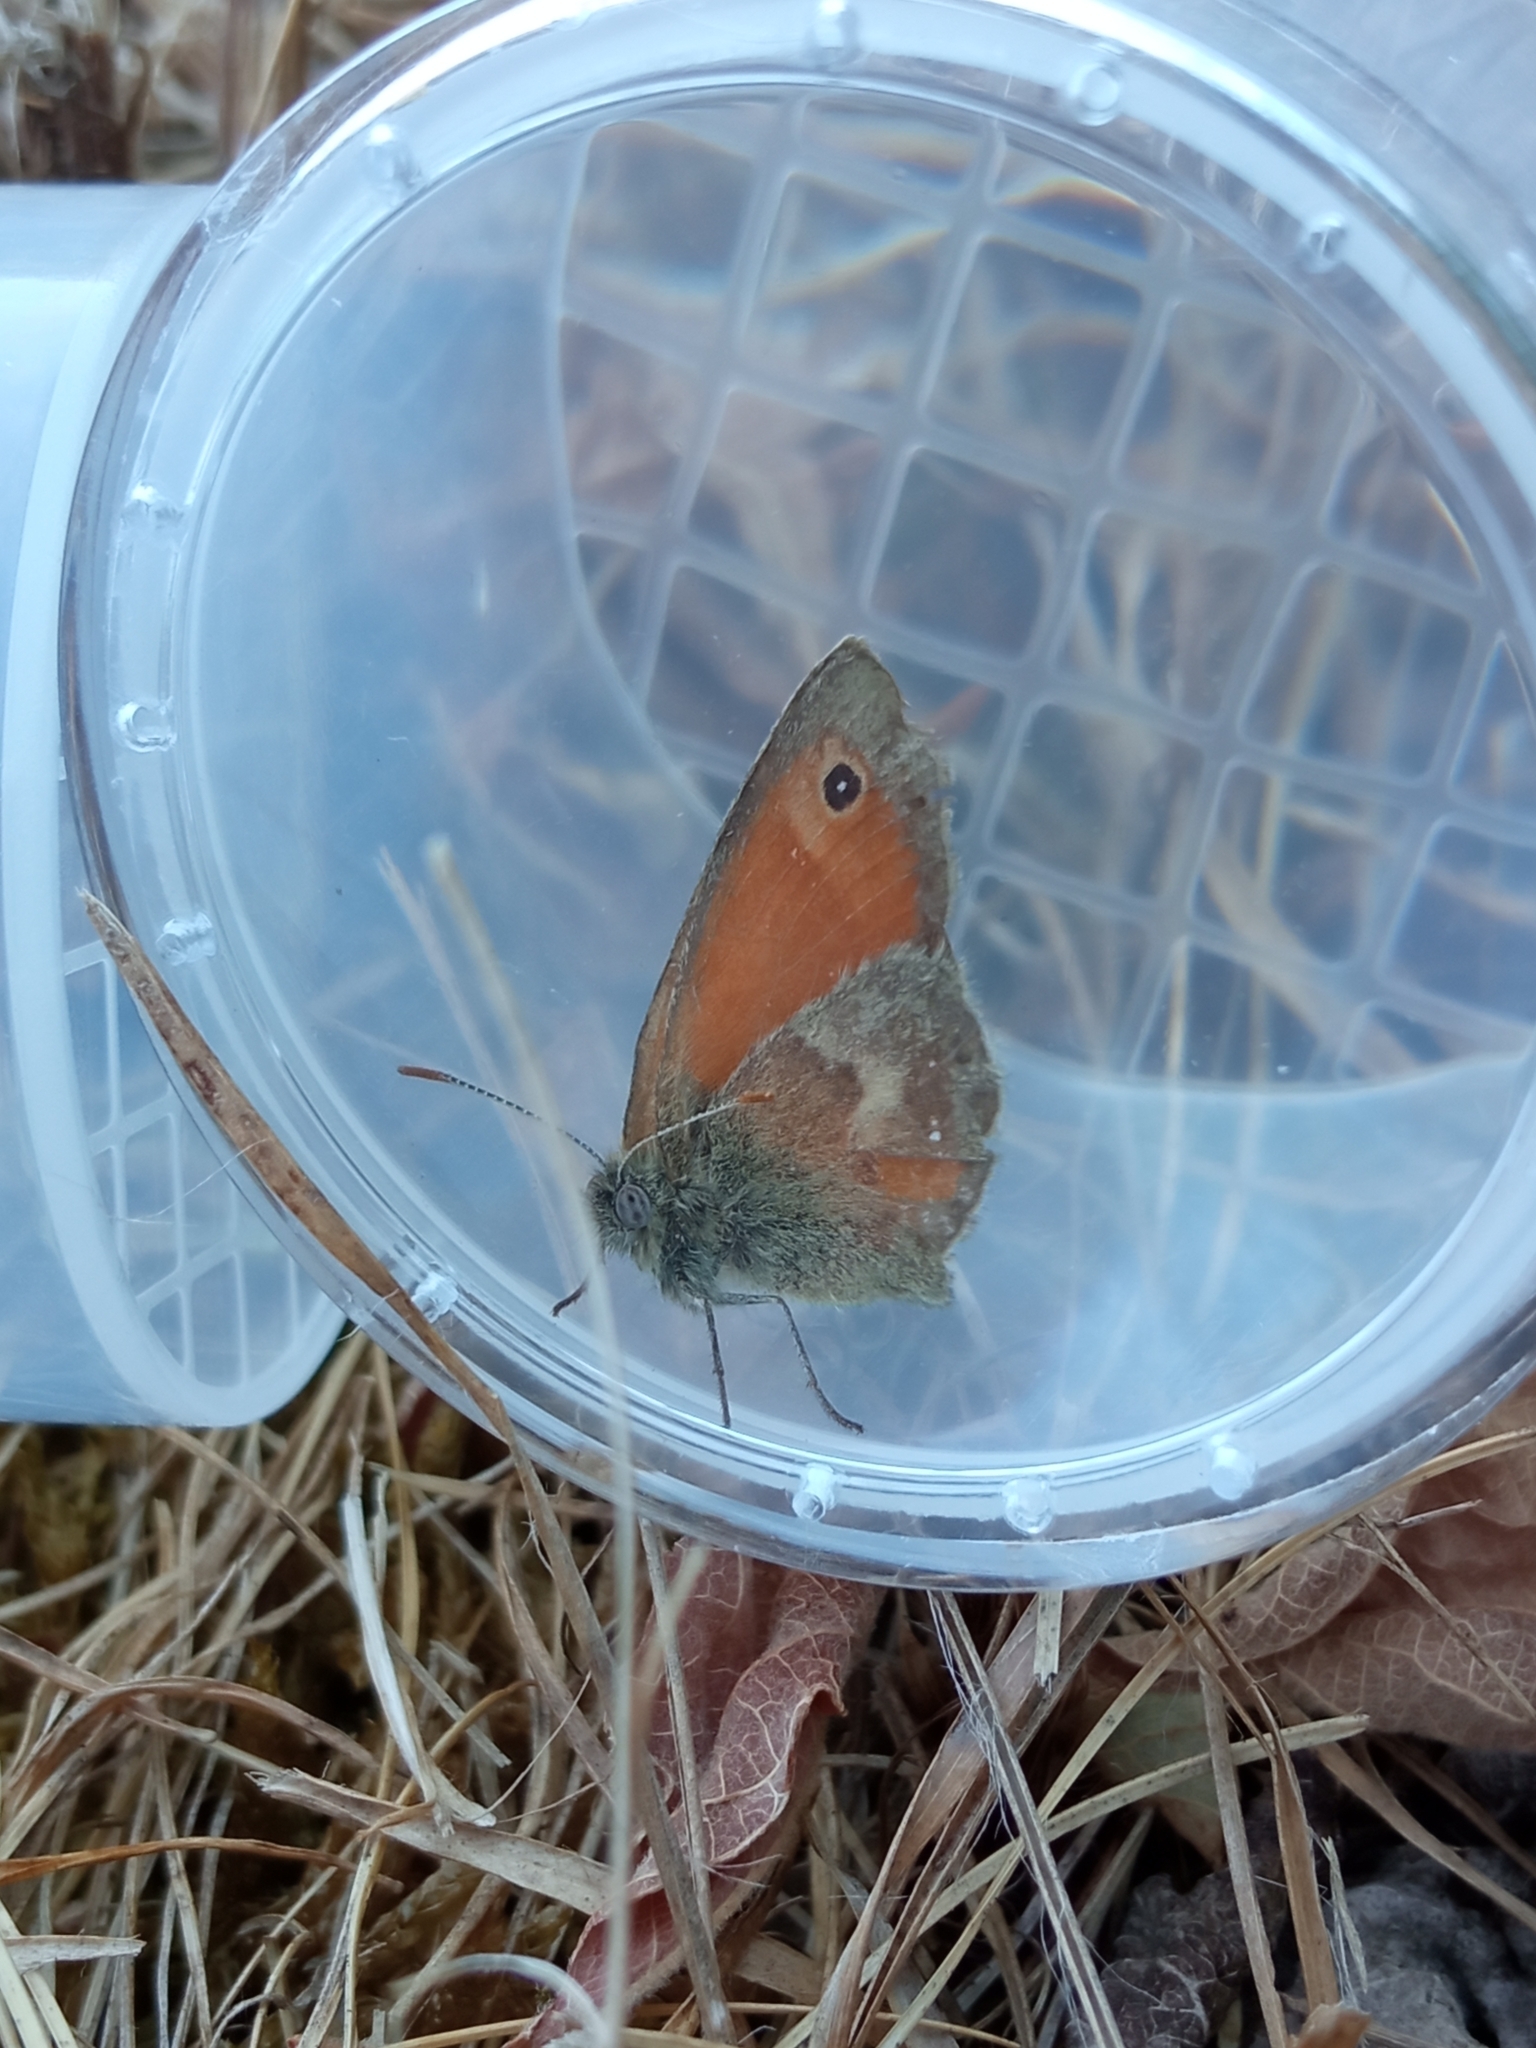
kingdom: Animalia
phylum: Arthropoda
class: Insecta
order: Lepidoptera
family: Nymphalidae
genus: Coenonympha
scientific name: Coenonympha pamphilus
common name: Small heath
